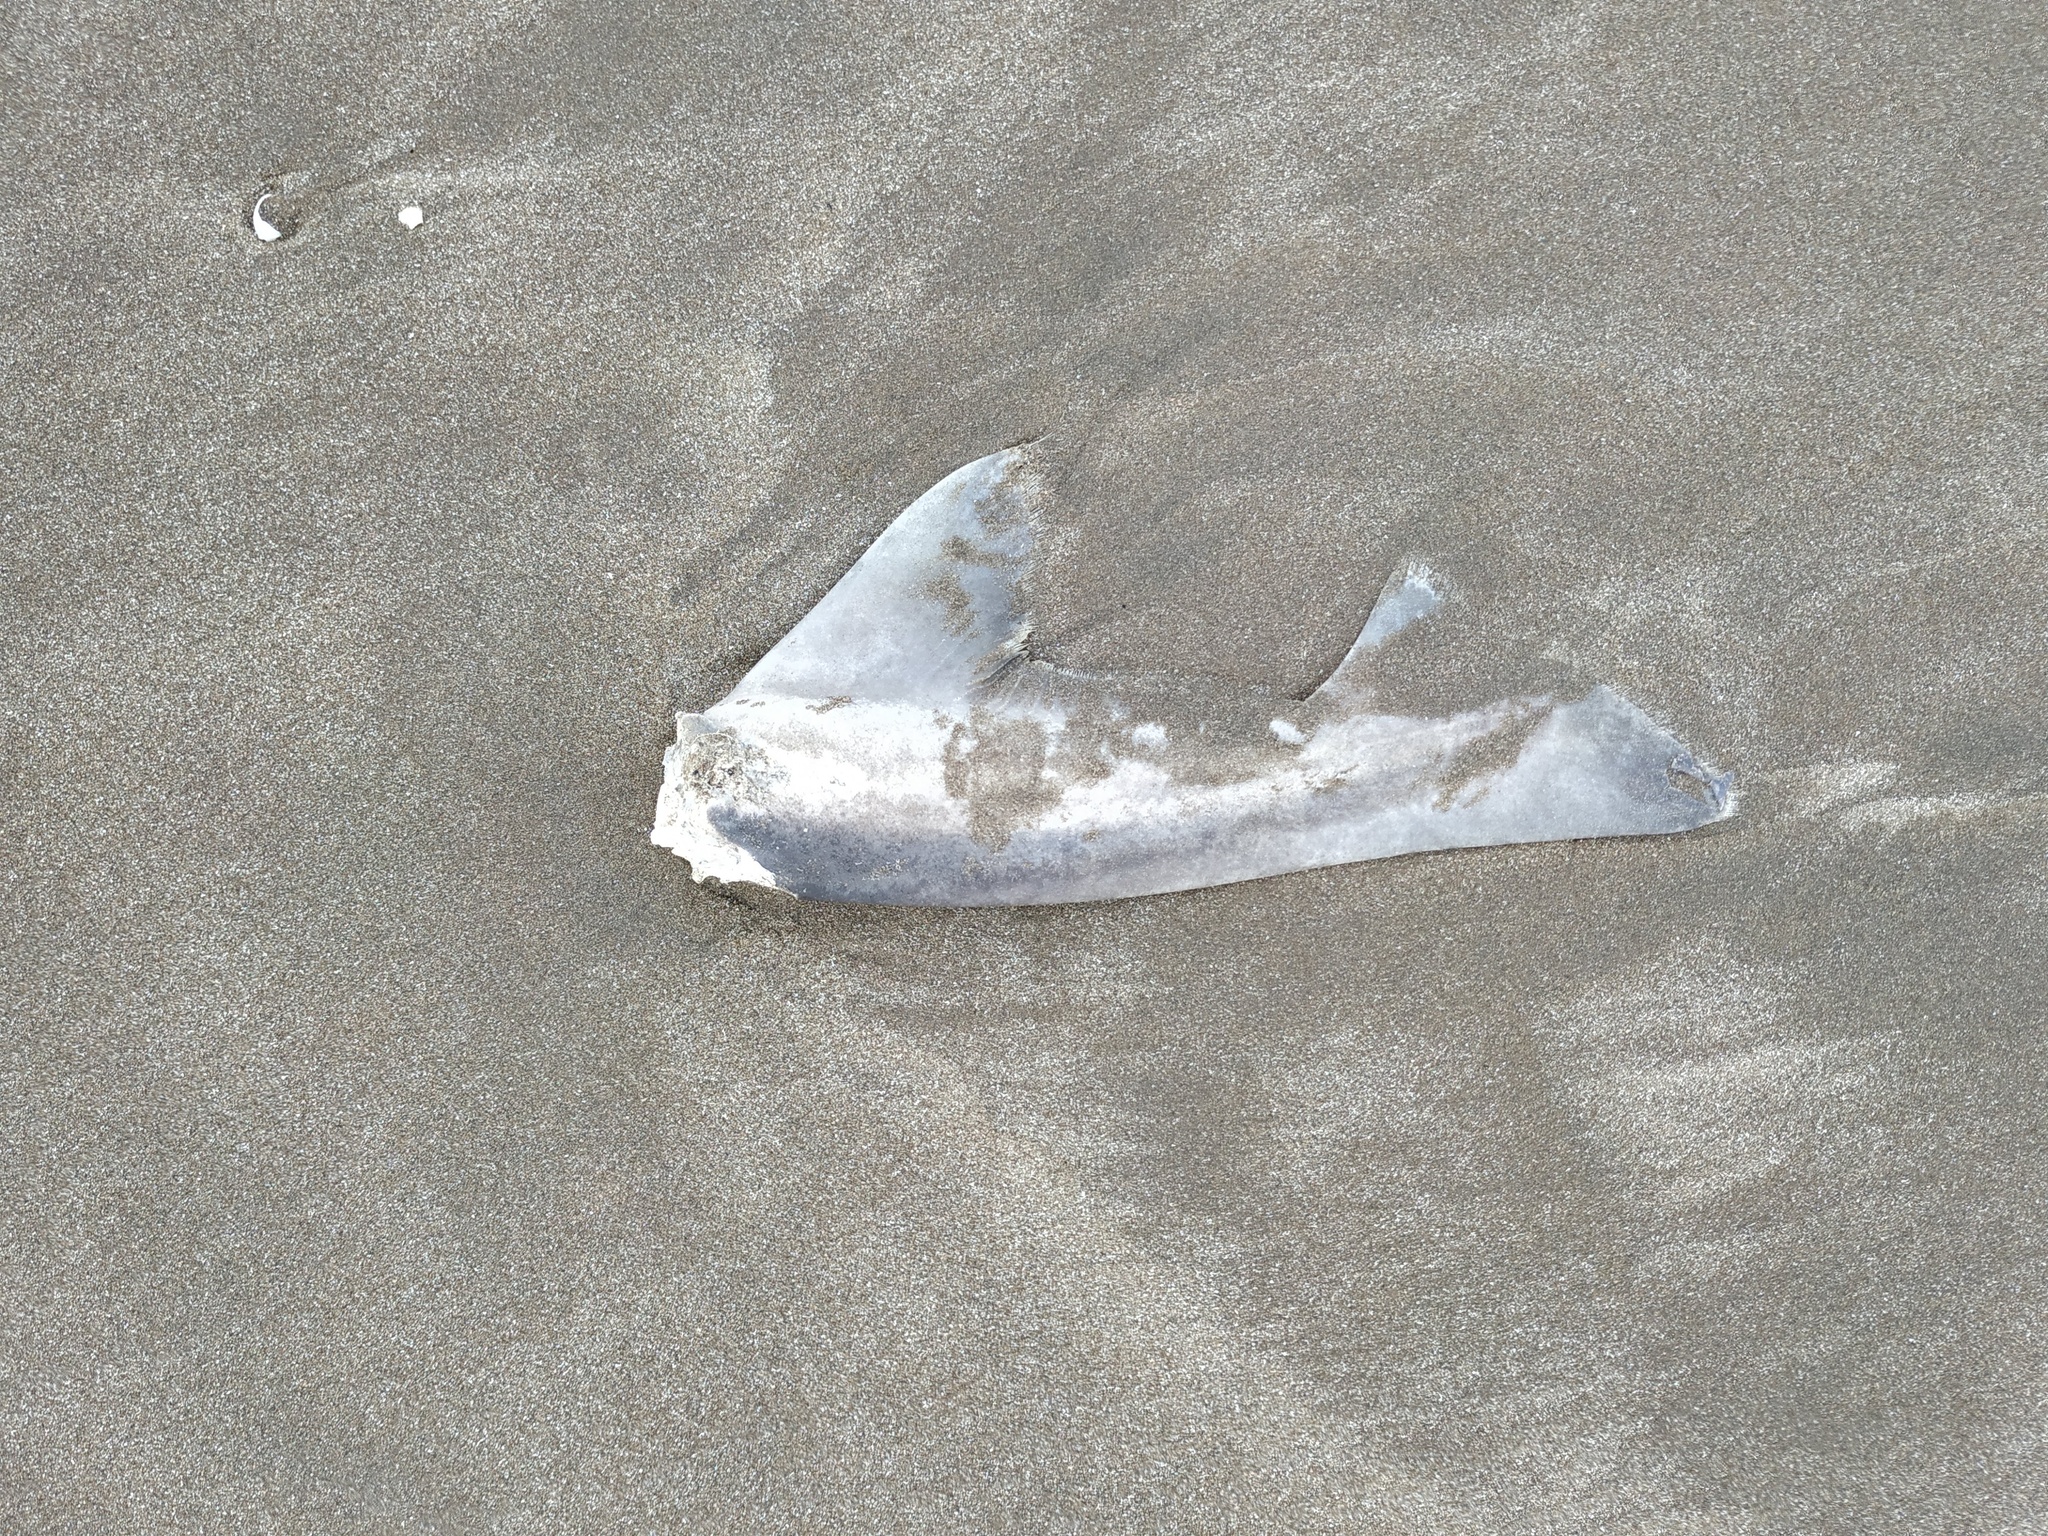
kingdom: Animalia
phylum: Chordata
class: Elasmobranchii
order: Carcharhiniformes
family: Triakidae
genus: Galeorhinus
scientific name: Galeorhinus galeus
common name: Tope
